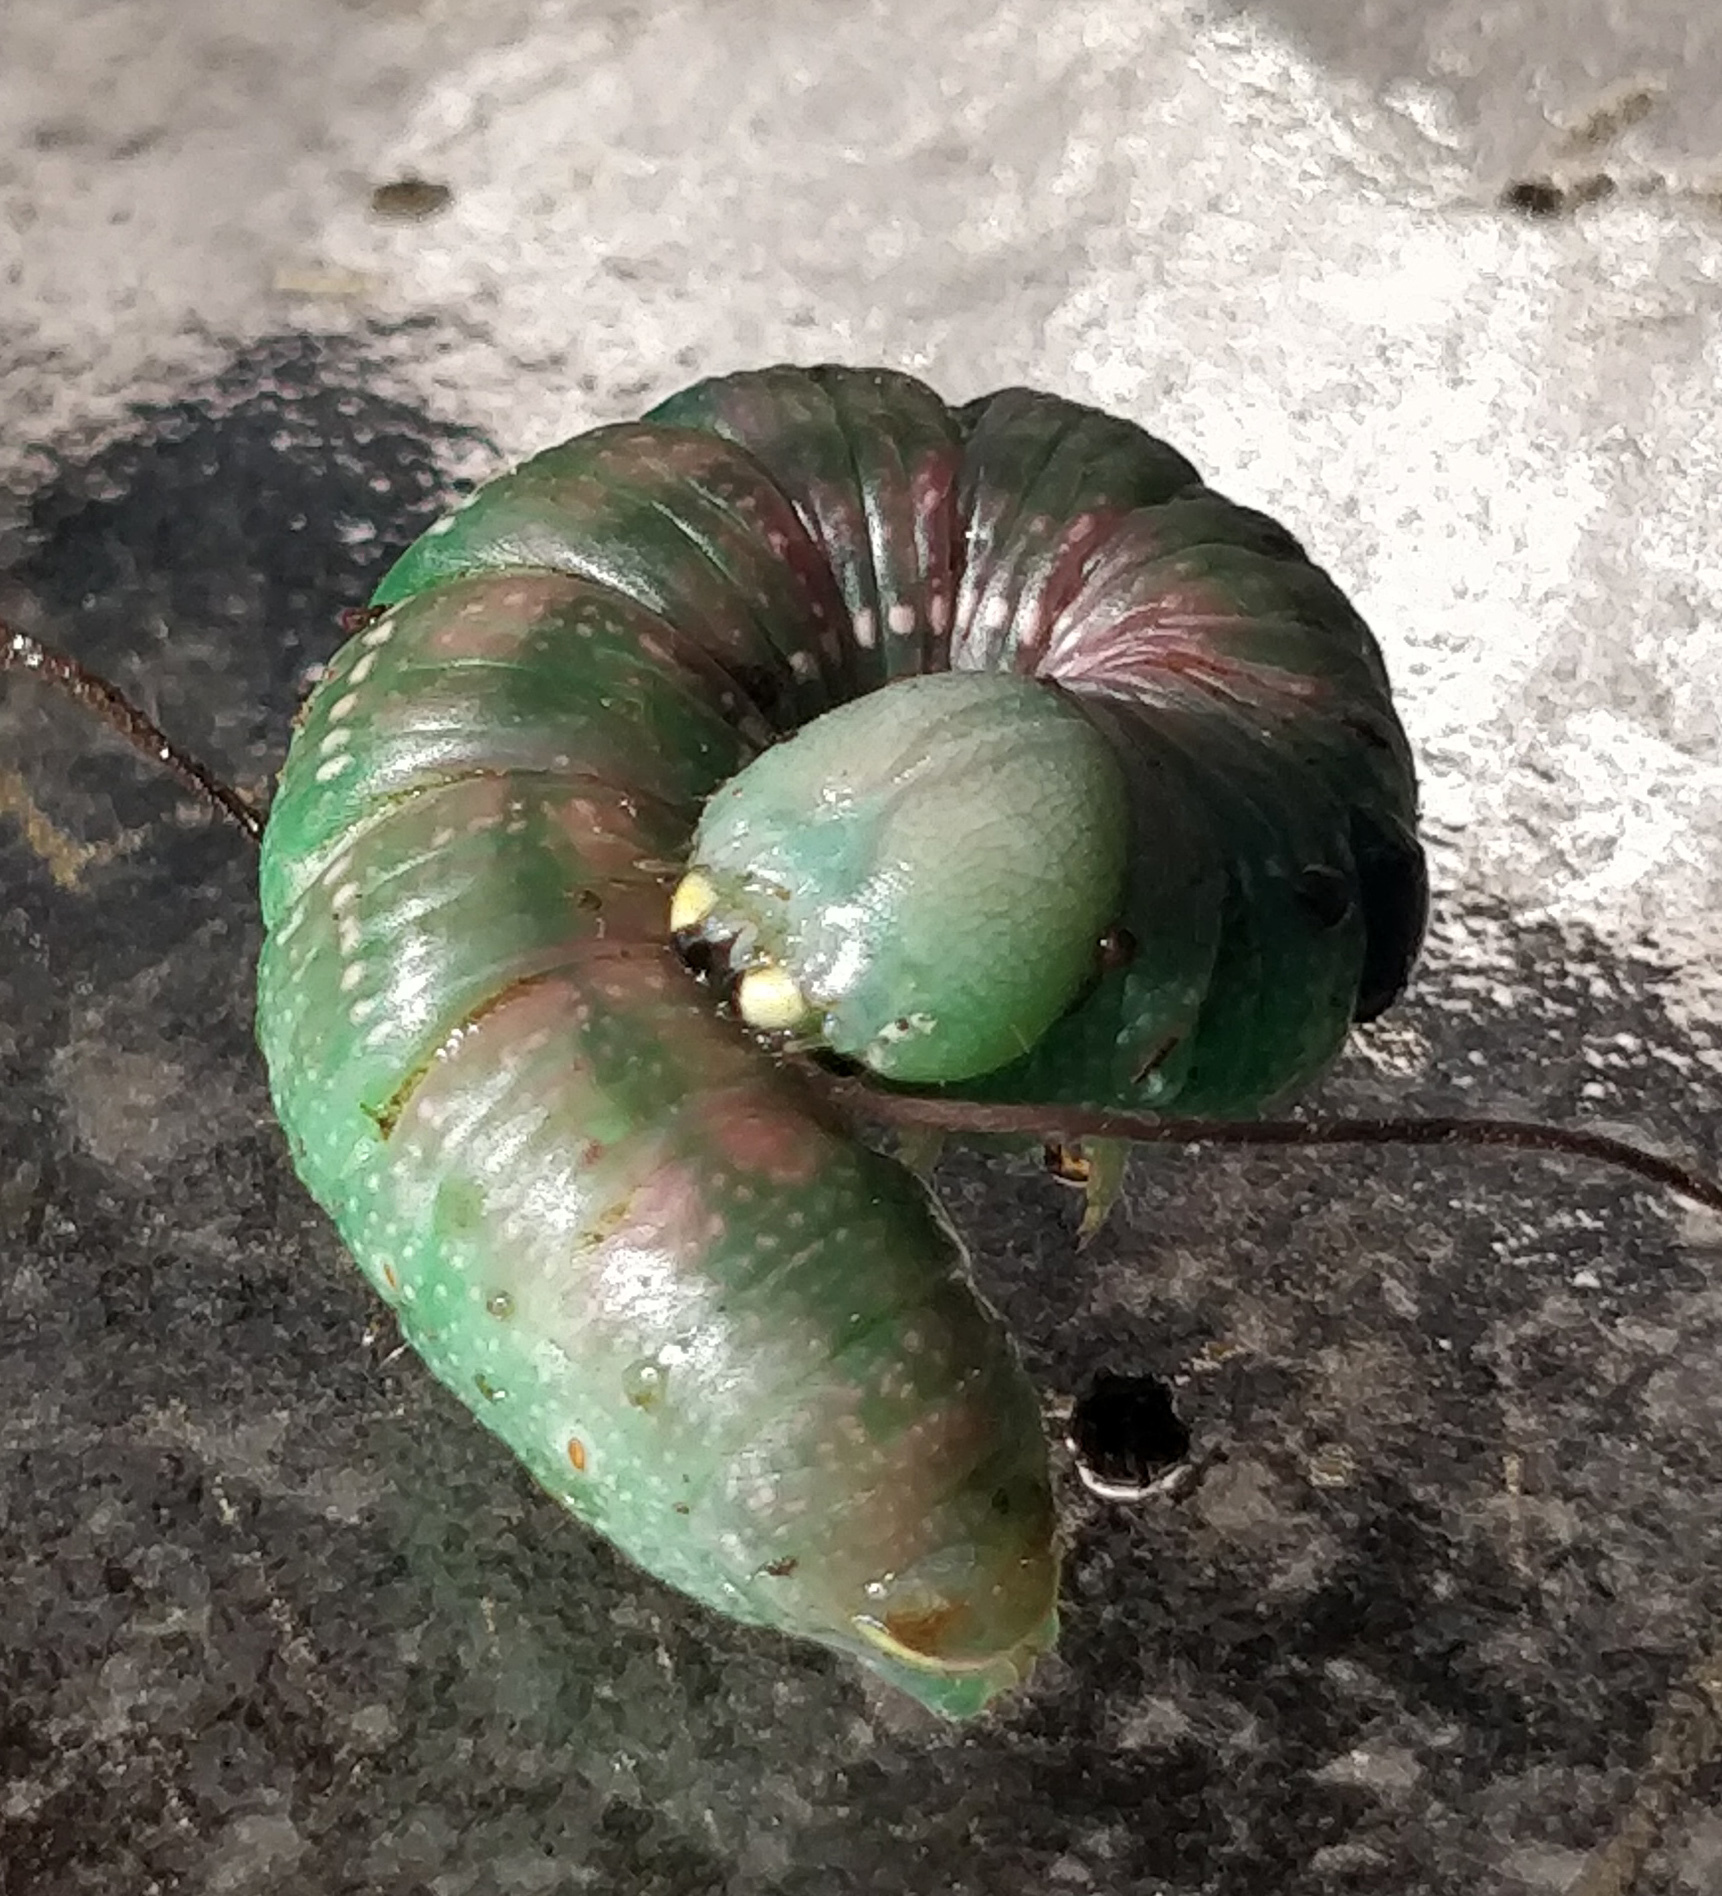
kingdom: Animalia
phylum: Arthropoda
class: Insecta
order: Lepidoptera
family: Notodontidae
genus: Nadata
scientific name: Nadata gibbosa
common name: White-dotted prominent
